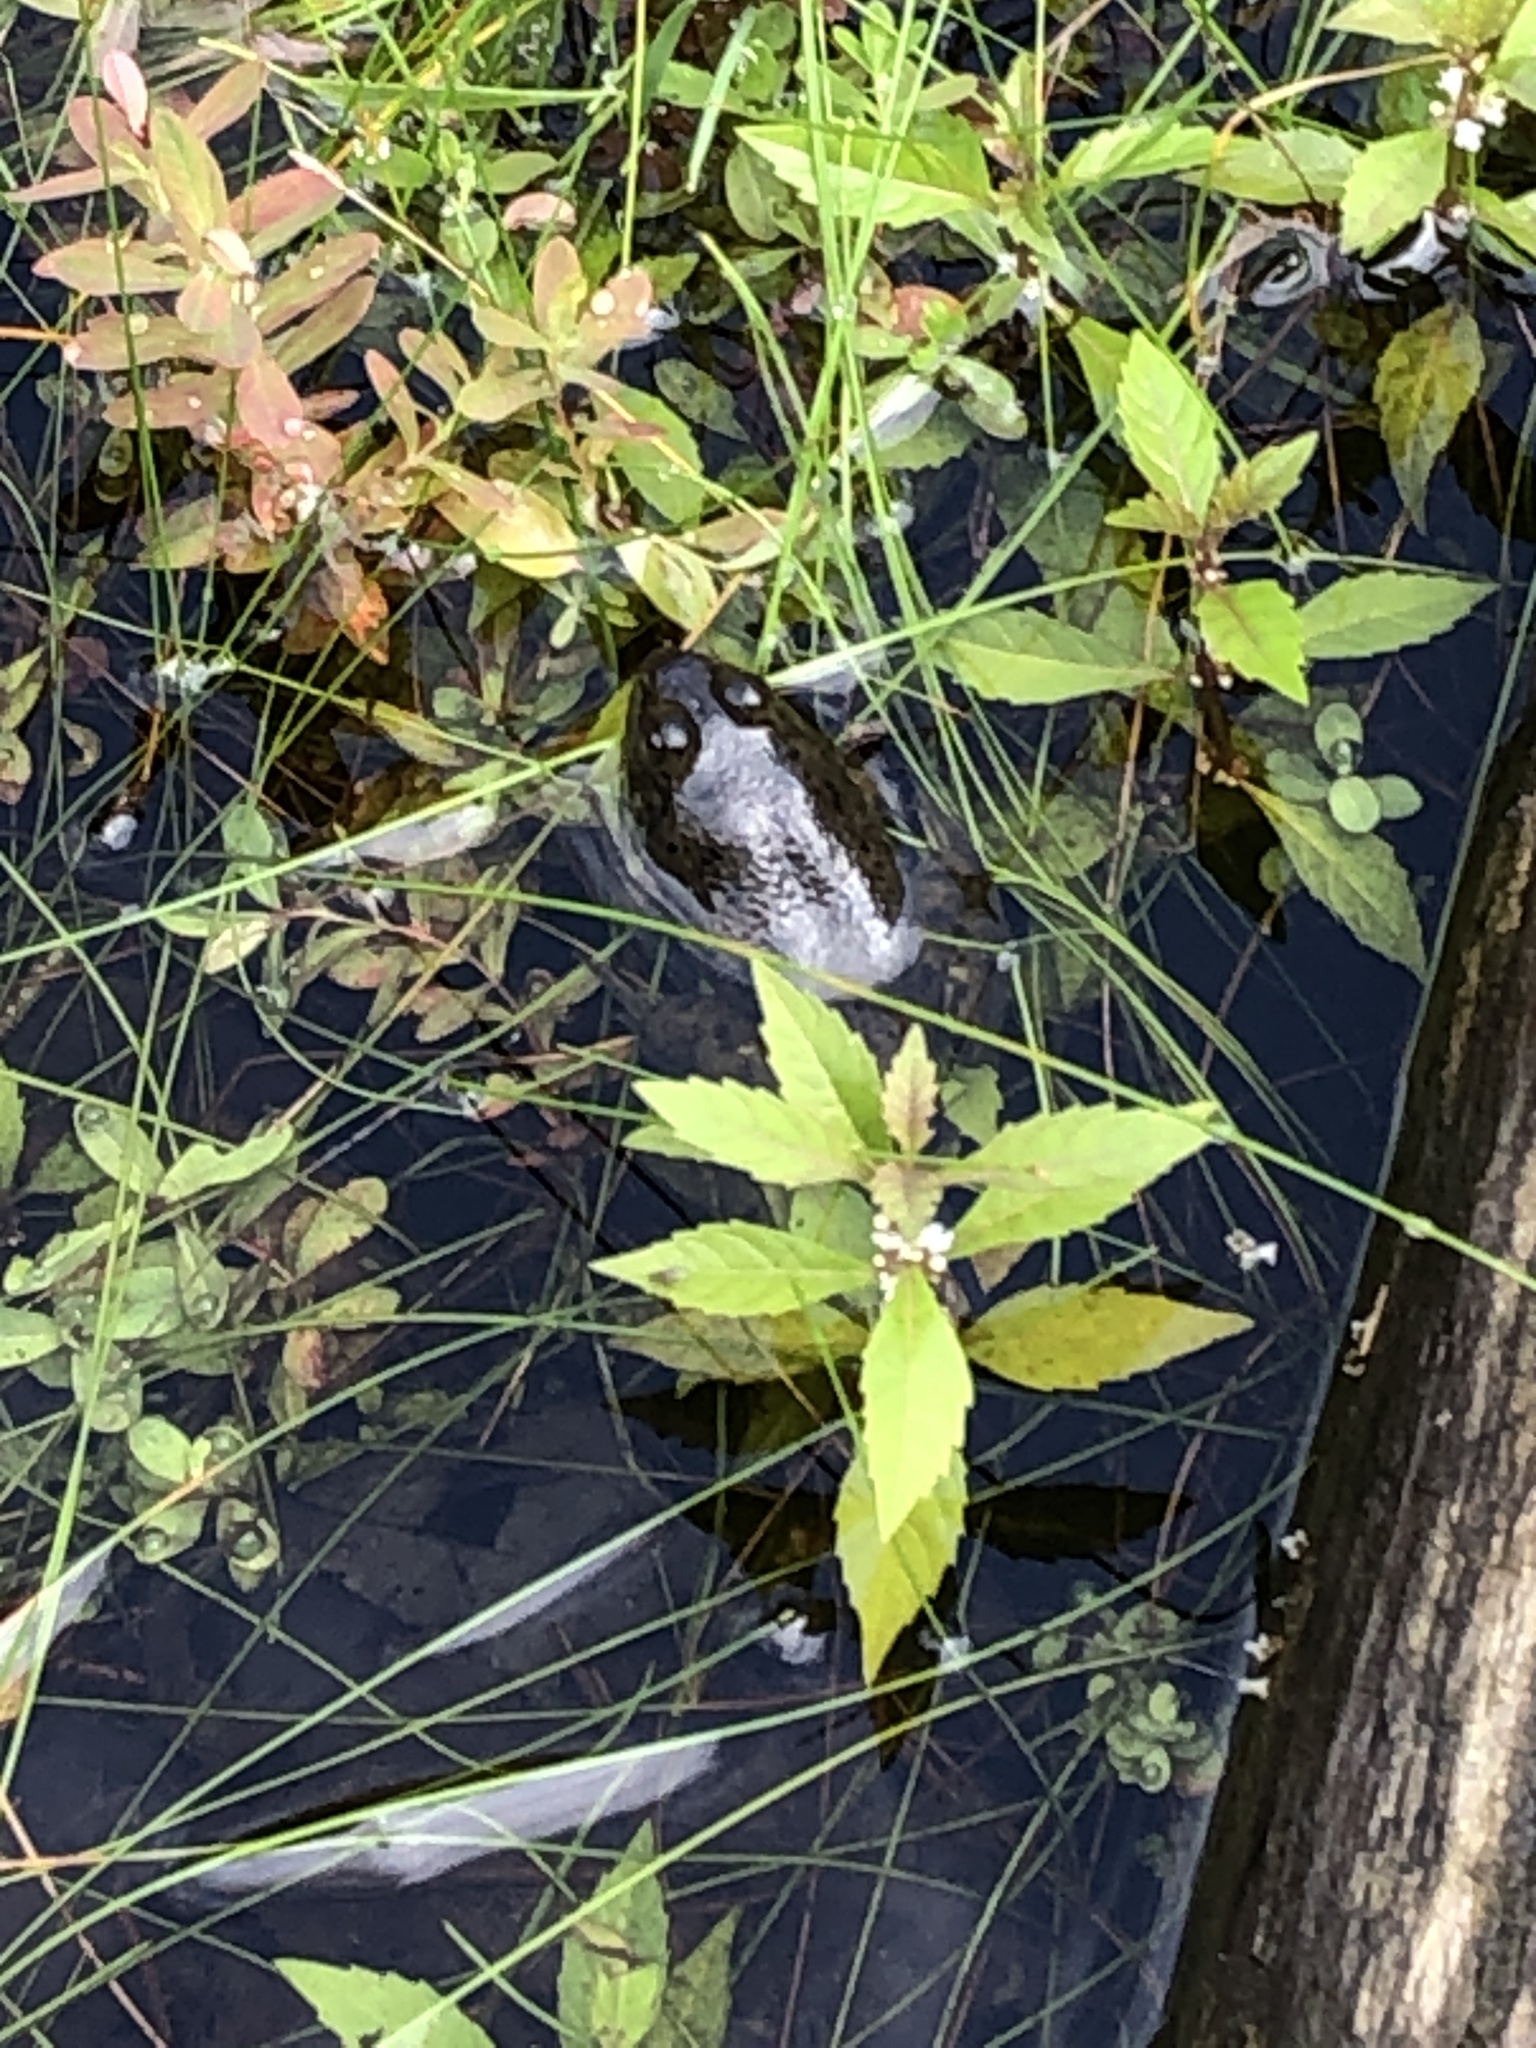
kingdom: Animalia
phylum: Chordata
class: Amphibia
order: Anura
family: Ranidae
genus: Lithobates
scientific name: Lithobates catesbeianus
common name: American bullfrog
